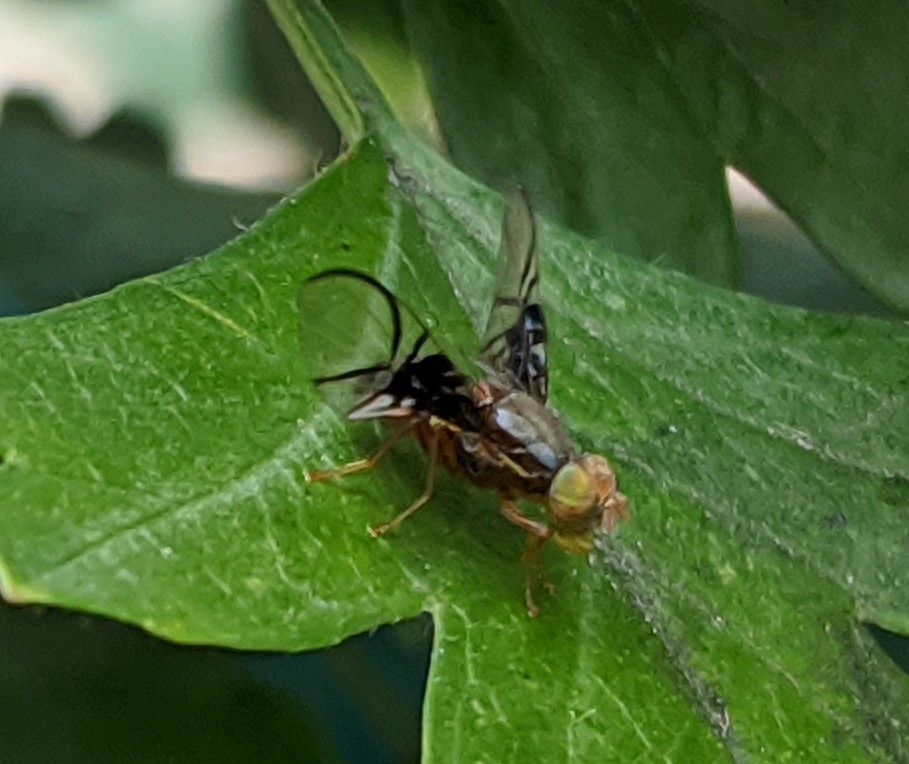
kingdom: Animalia
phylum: Arthropoda
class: Insecta
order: Diptera
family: Tephritidae
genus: Anomoia
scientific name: Anomoia purmunda
